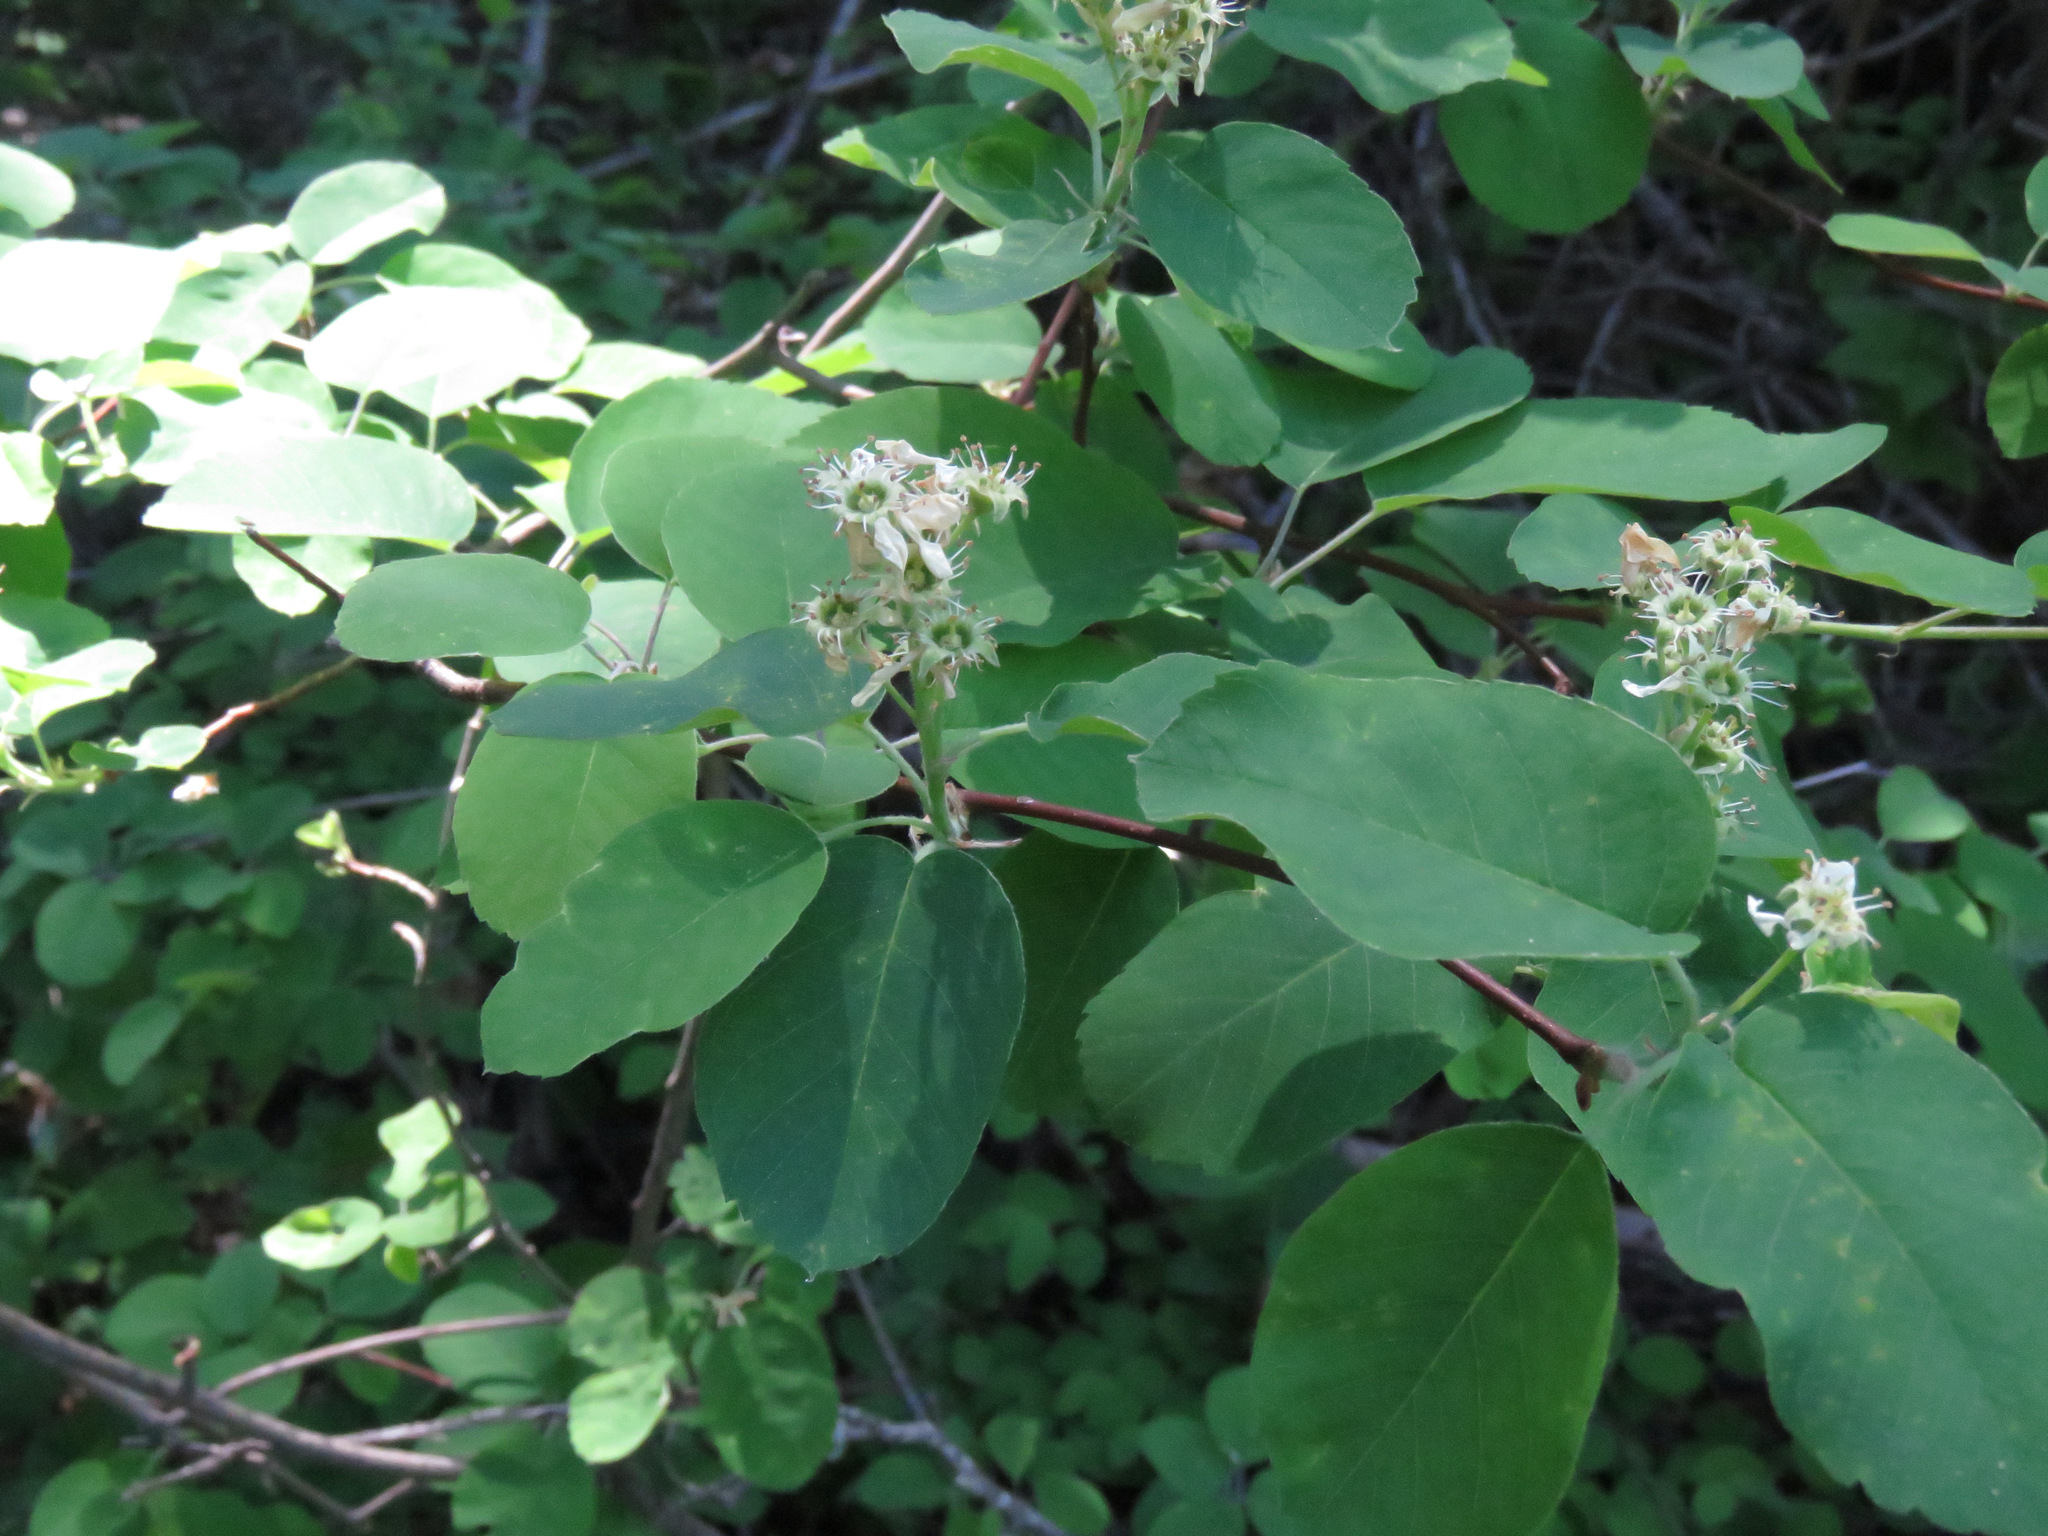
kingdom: Plantae
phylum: Tracheophyta
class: Magnoliopsida
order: Rosales
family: Rosaceae
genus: Amelanchier
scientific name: Amelanchier alnifolia
